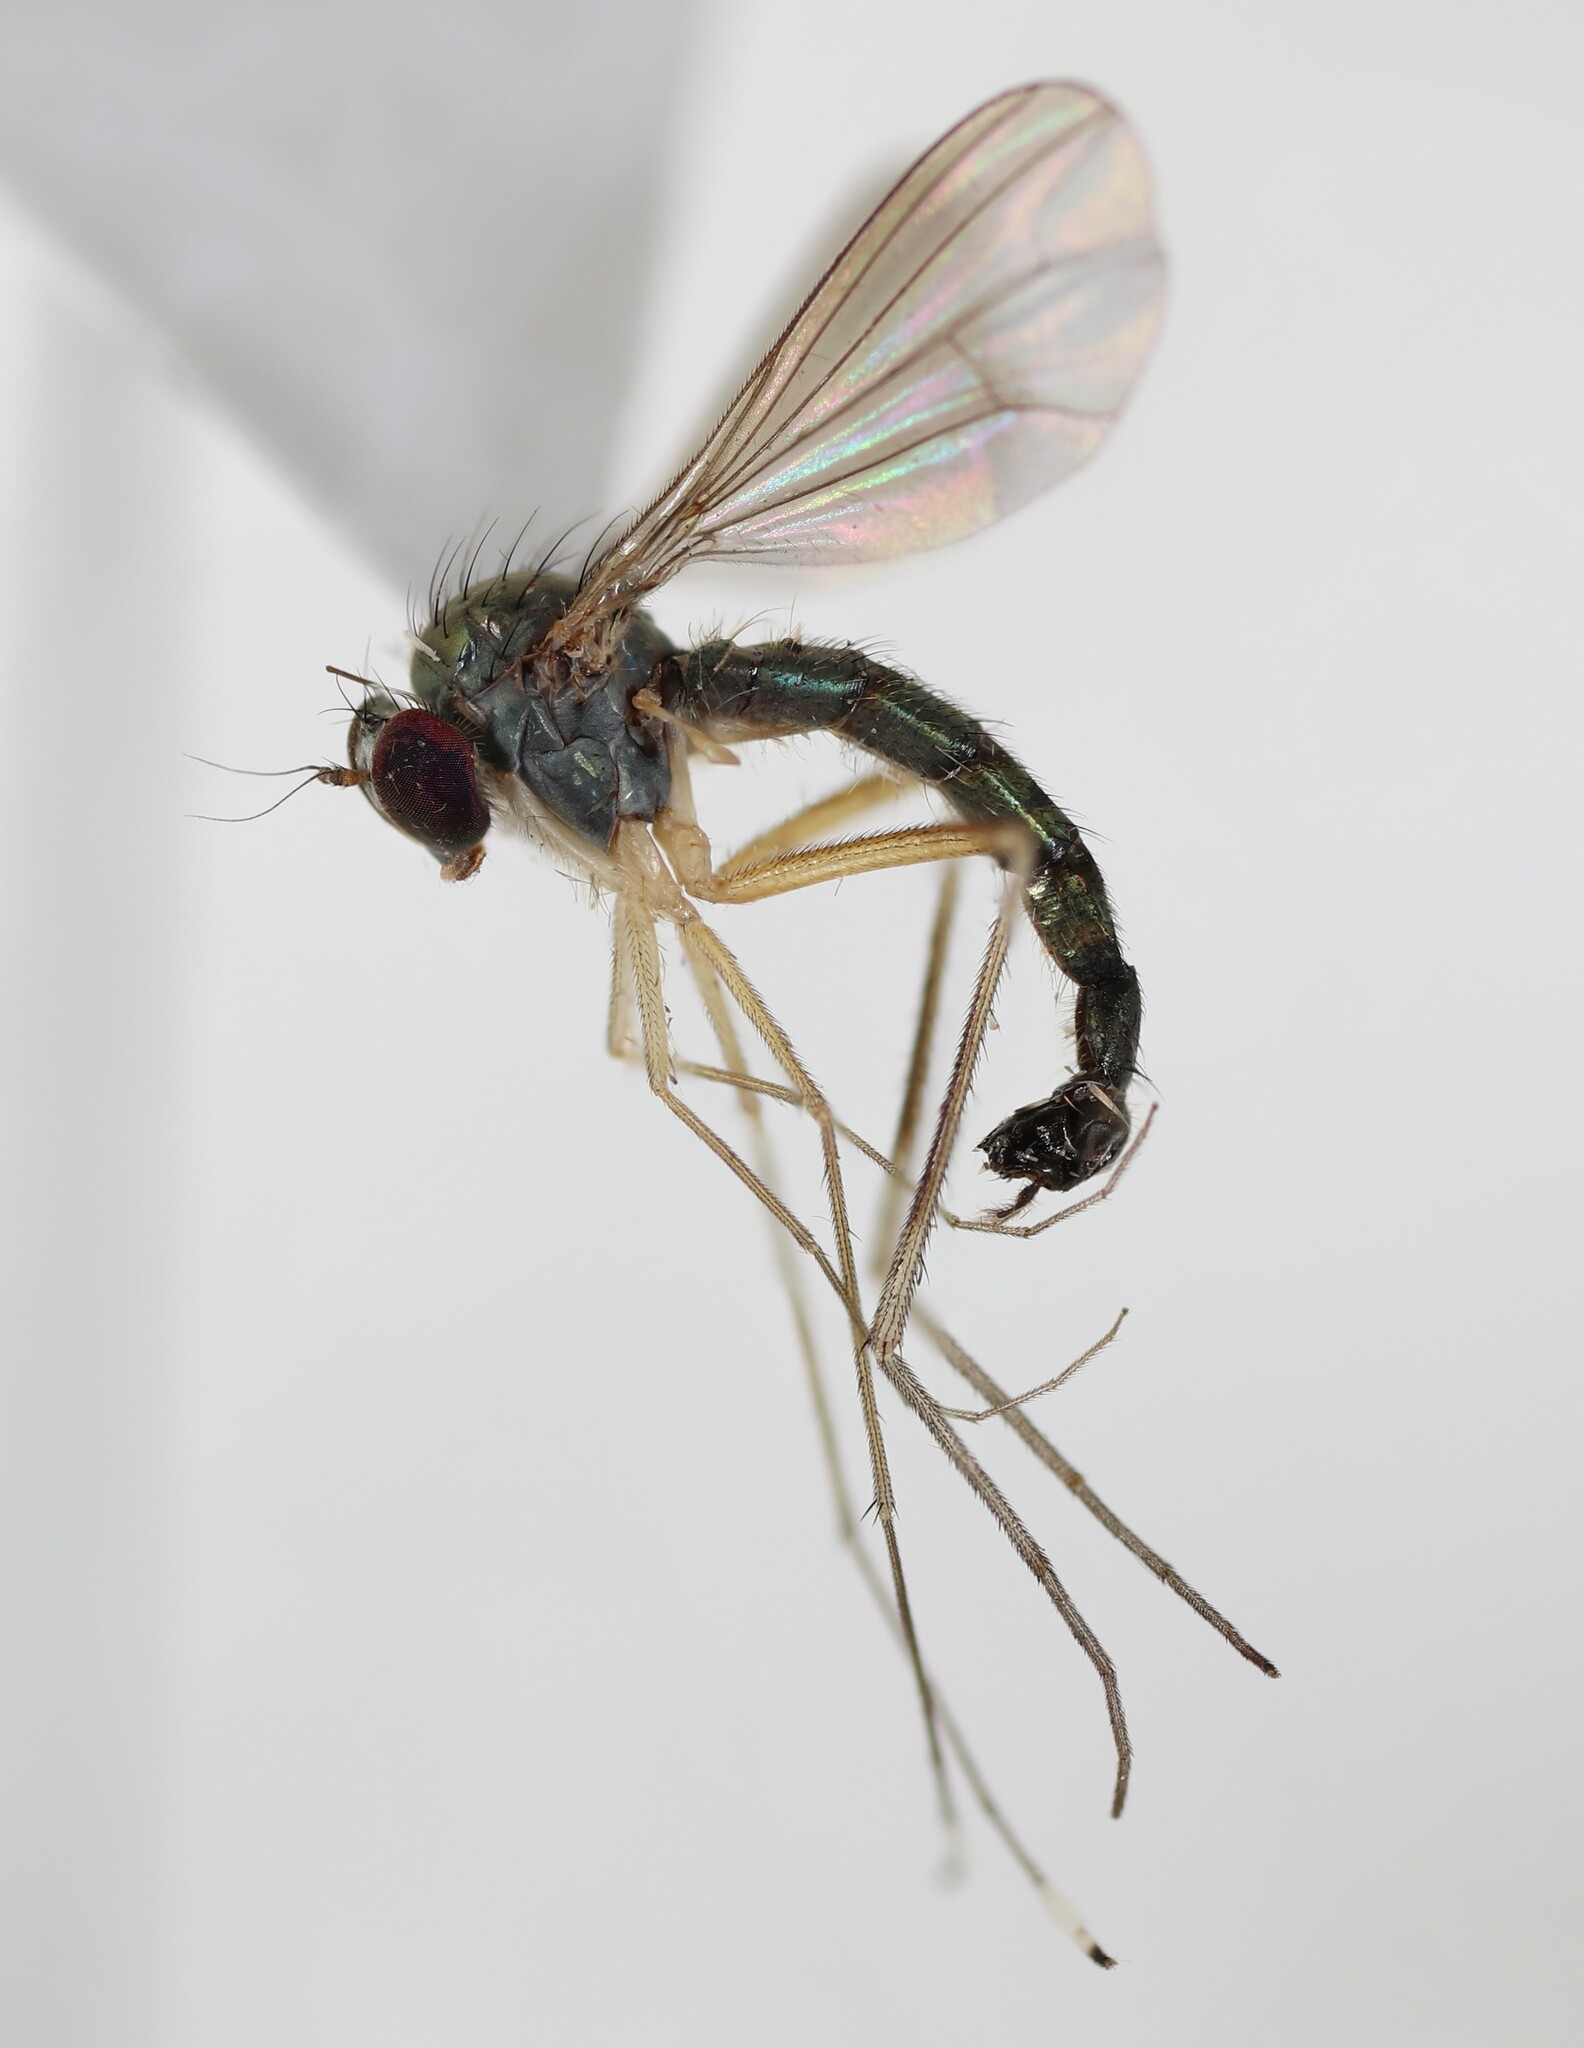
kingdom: Animalia
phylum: Arthropoda
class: Insecta
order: Diptera
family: Dolichopodidae
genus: Sciapus
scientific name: Sciapus platypterus
